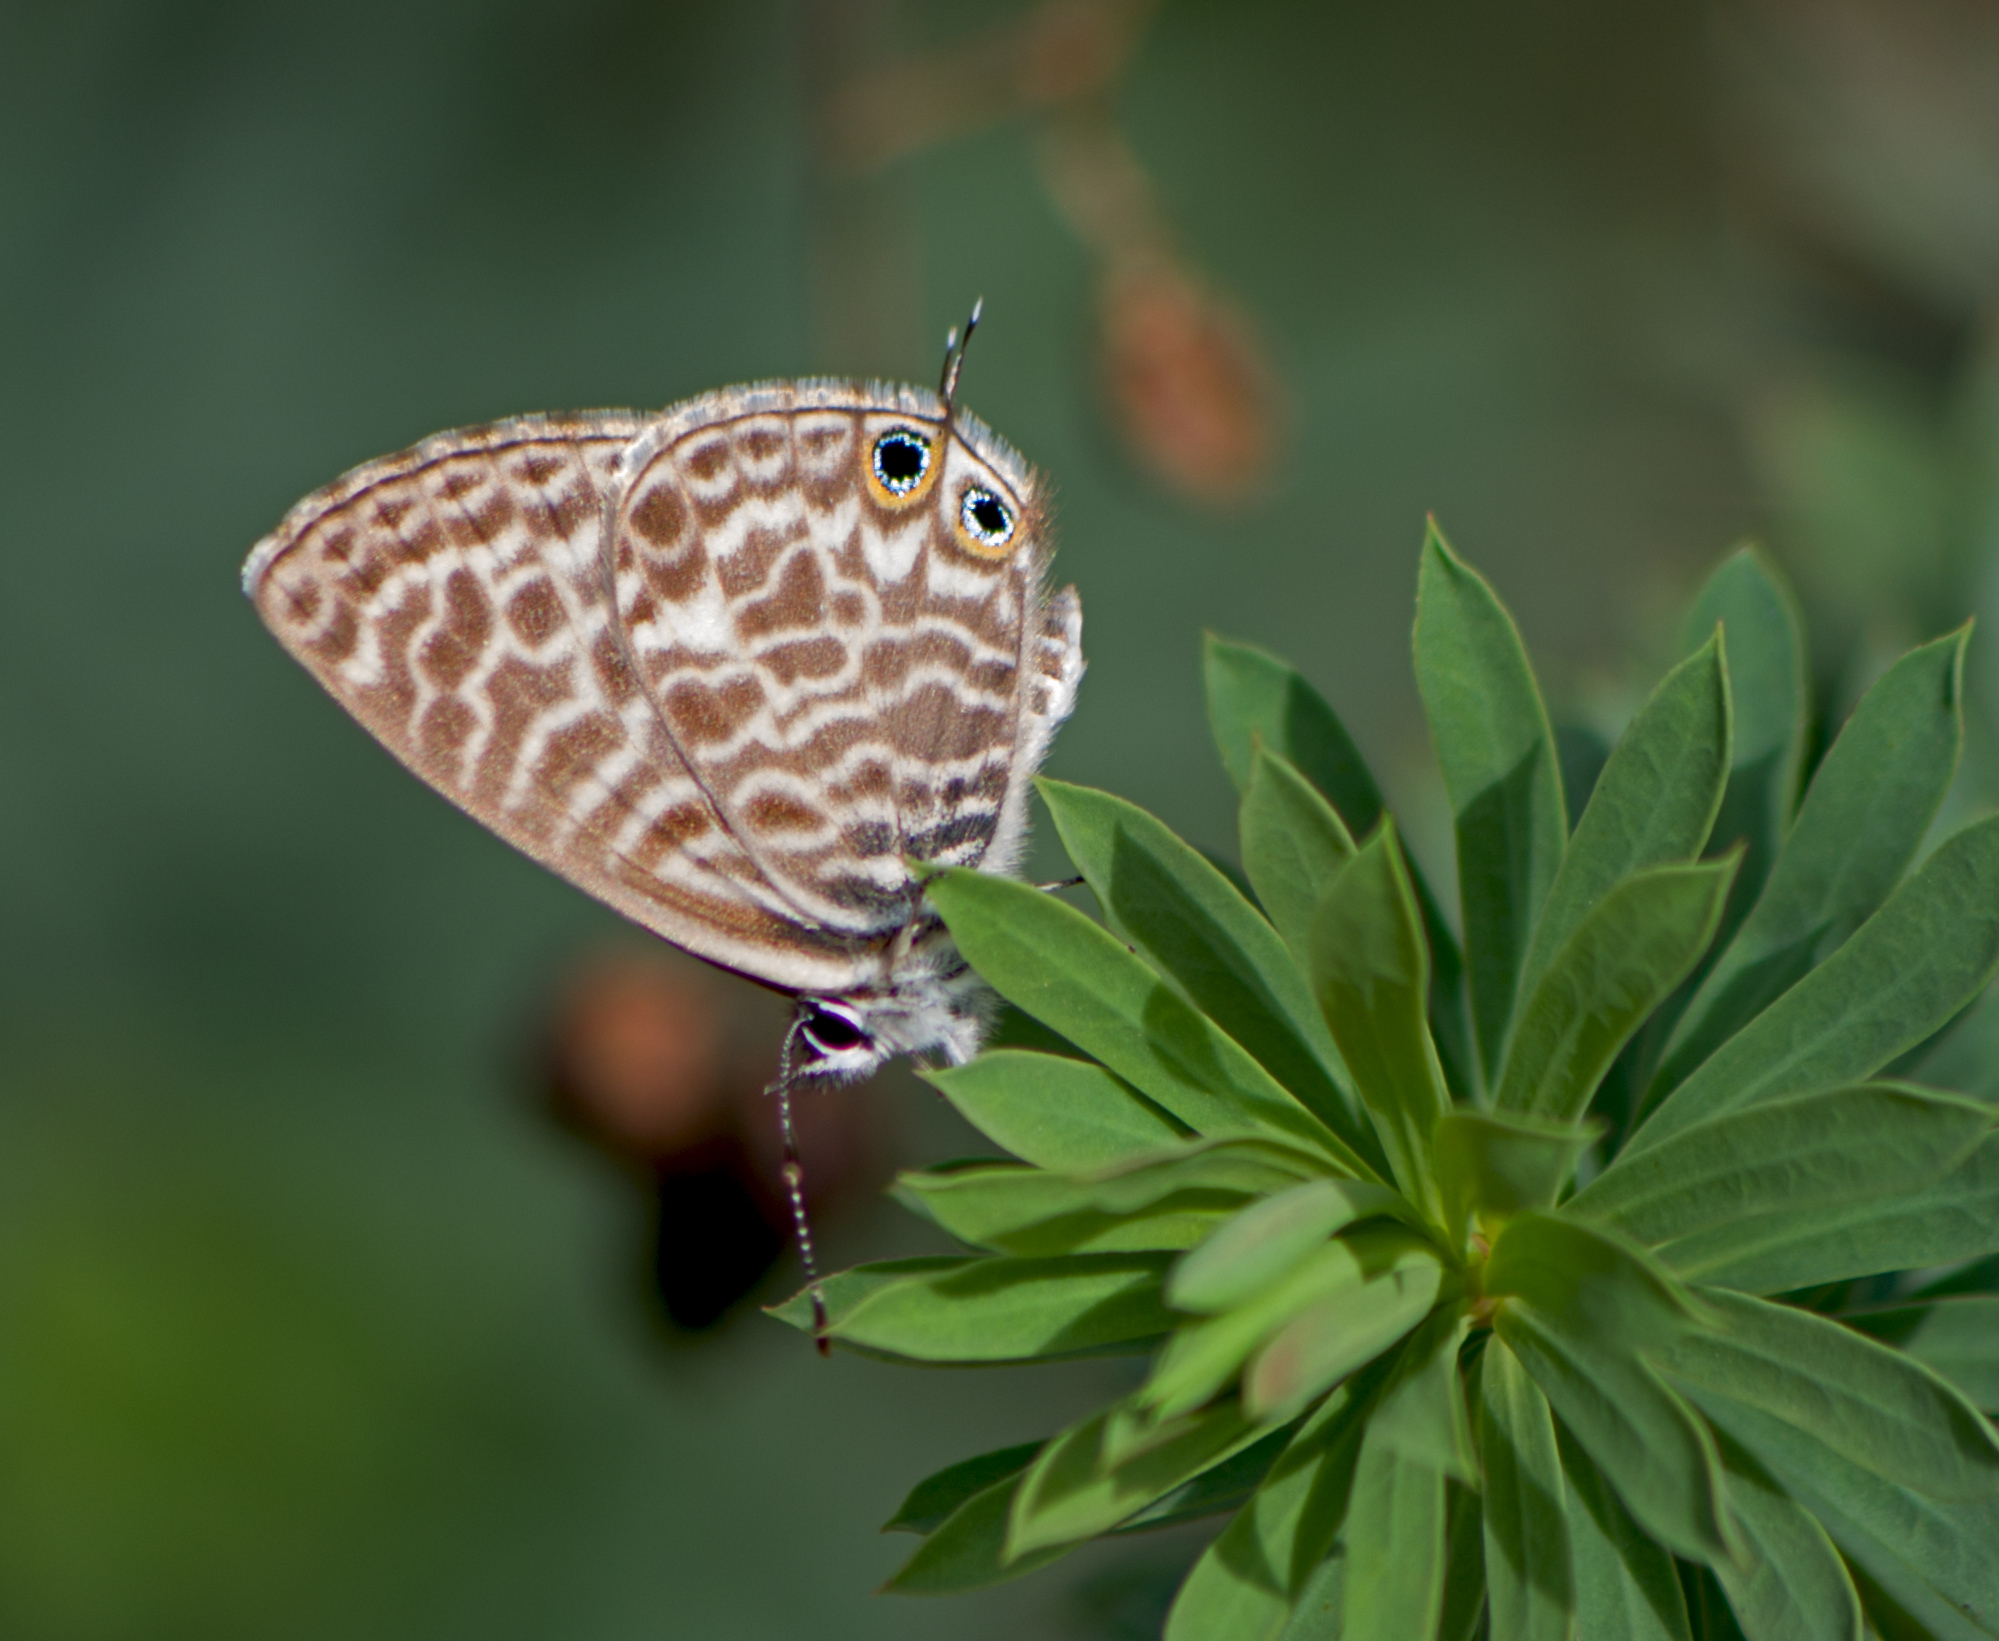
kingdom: Animalia
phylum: Arthropoda
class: Insecta
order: Lepidoptera
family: Lycaenidae
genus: Leptotes
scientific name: Leptotes pirithous
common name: Lang's short-tailed blue
